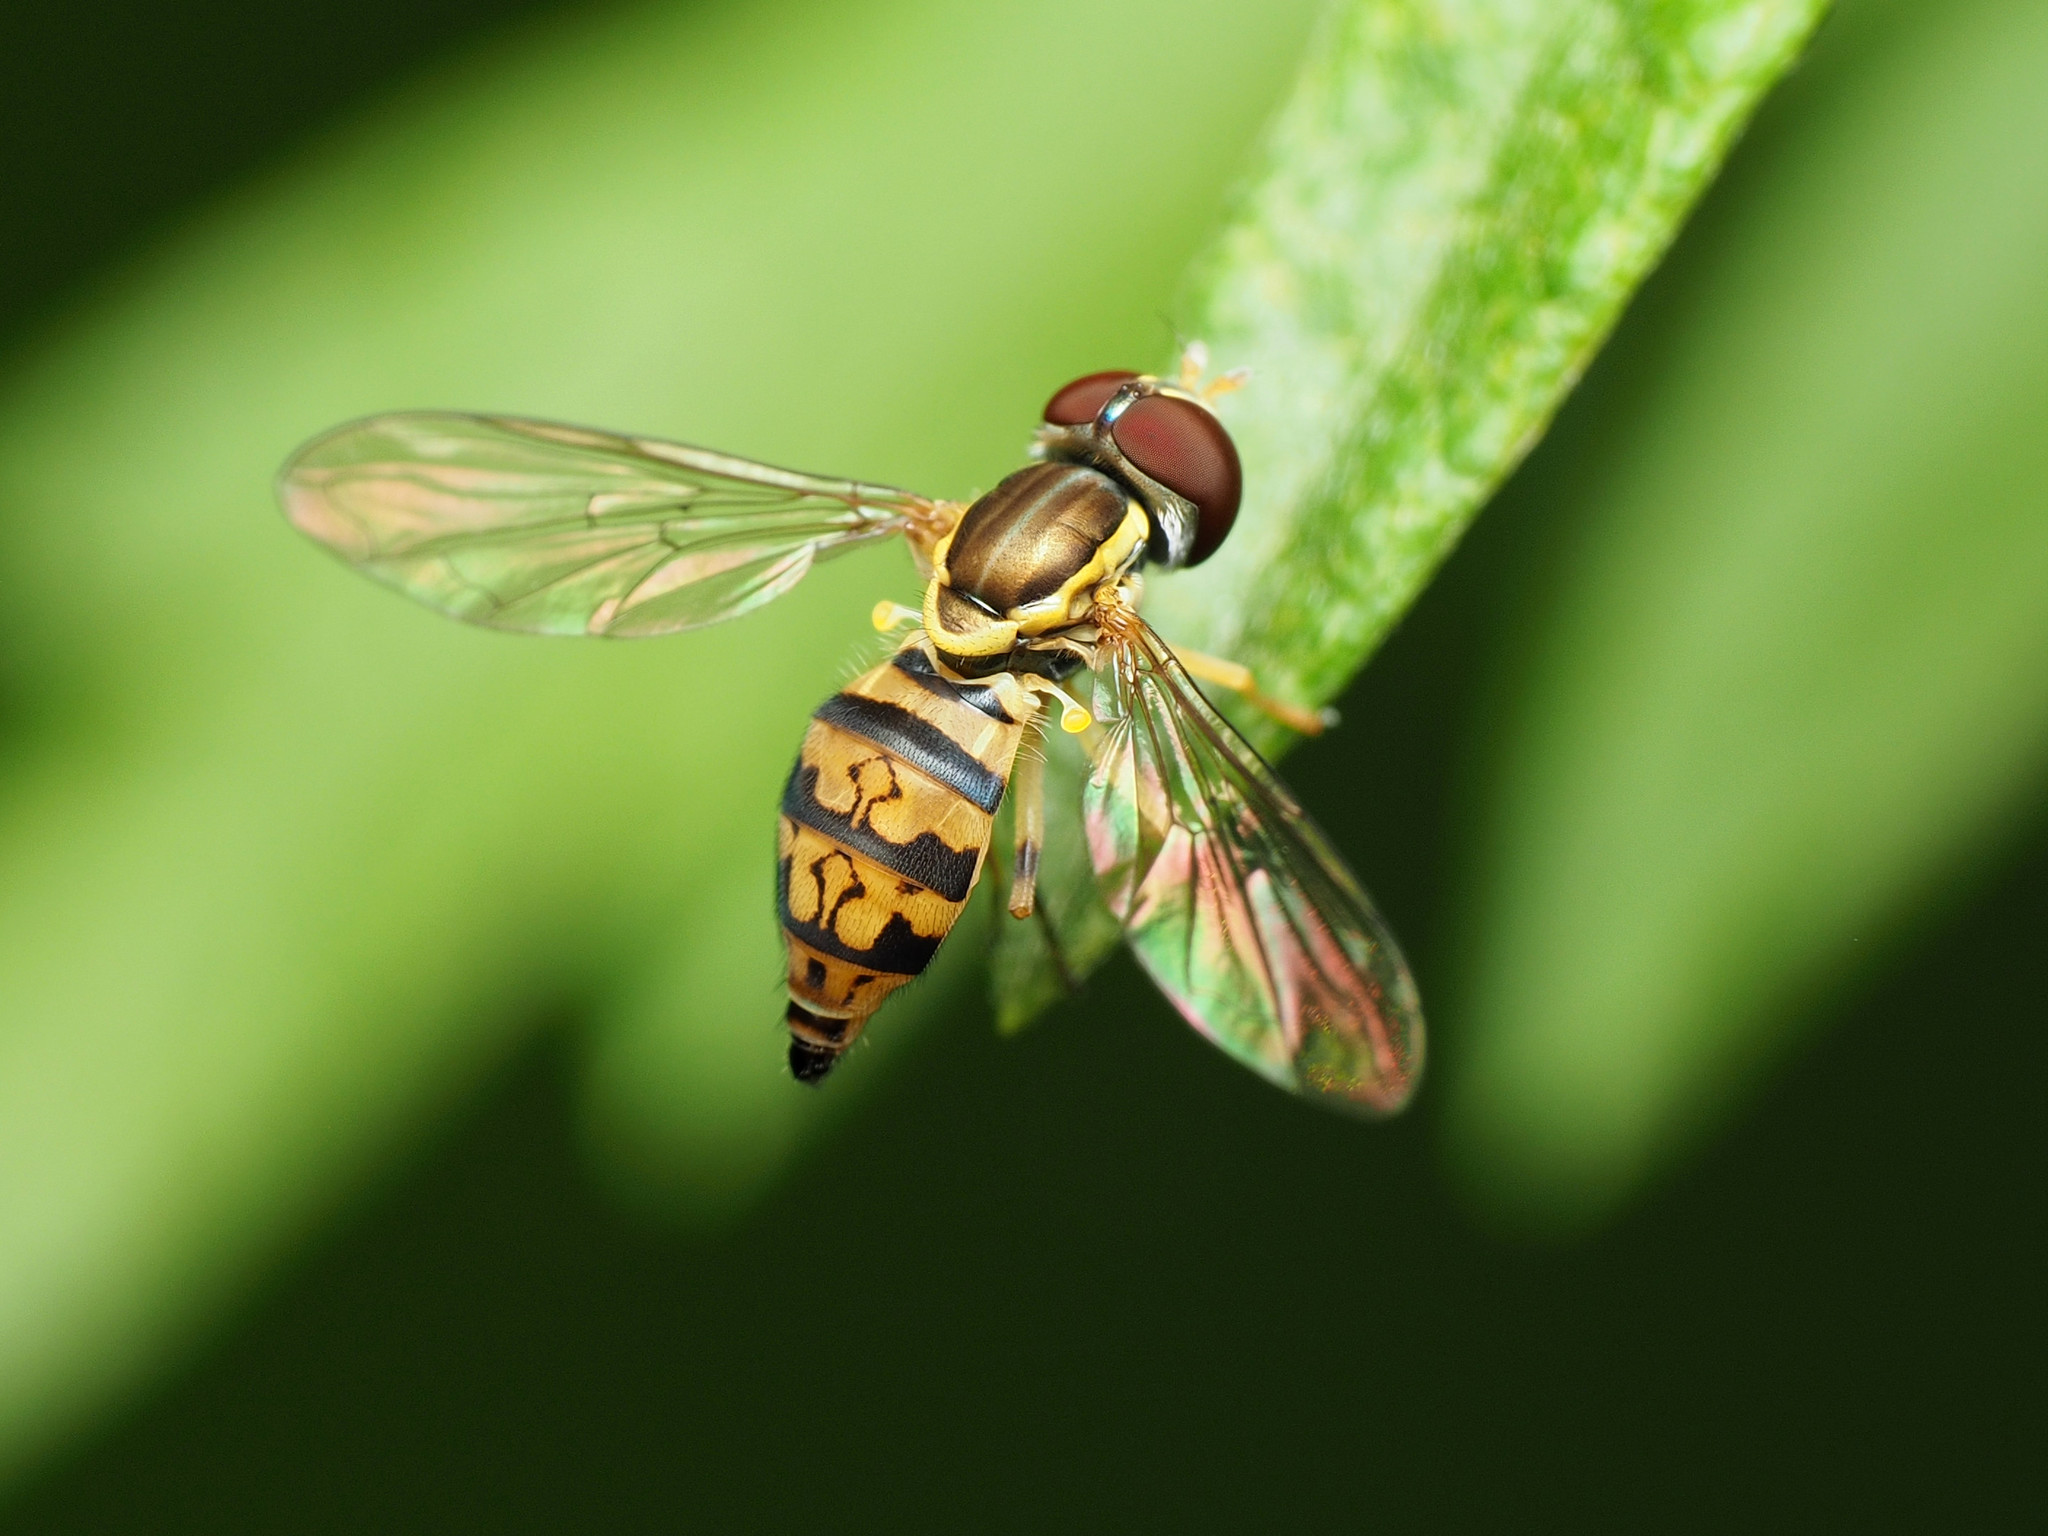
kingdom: Animalia
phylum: Arthropoda
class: Insecta
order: Diptera
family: Syrphidae
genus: Toxomerus
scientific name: Toxomerus geminatus
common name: Eastern calligrapher
